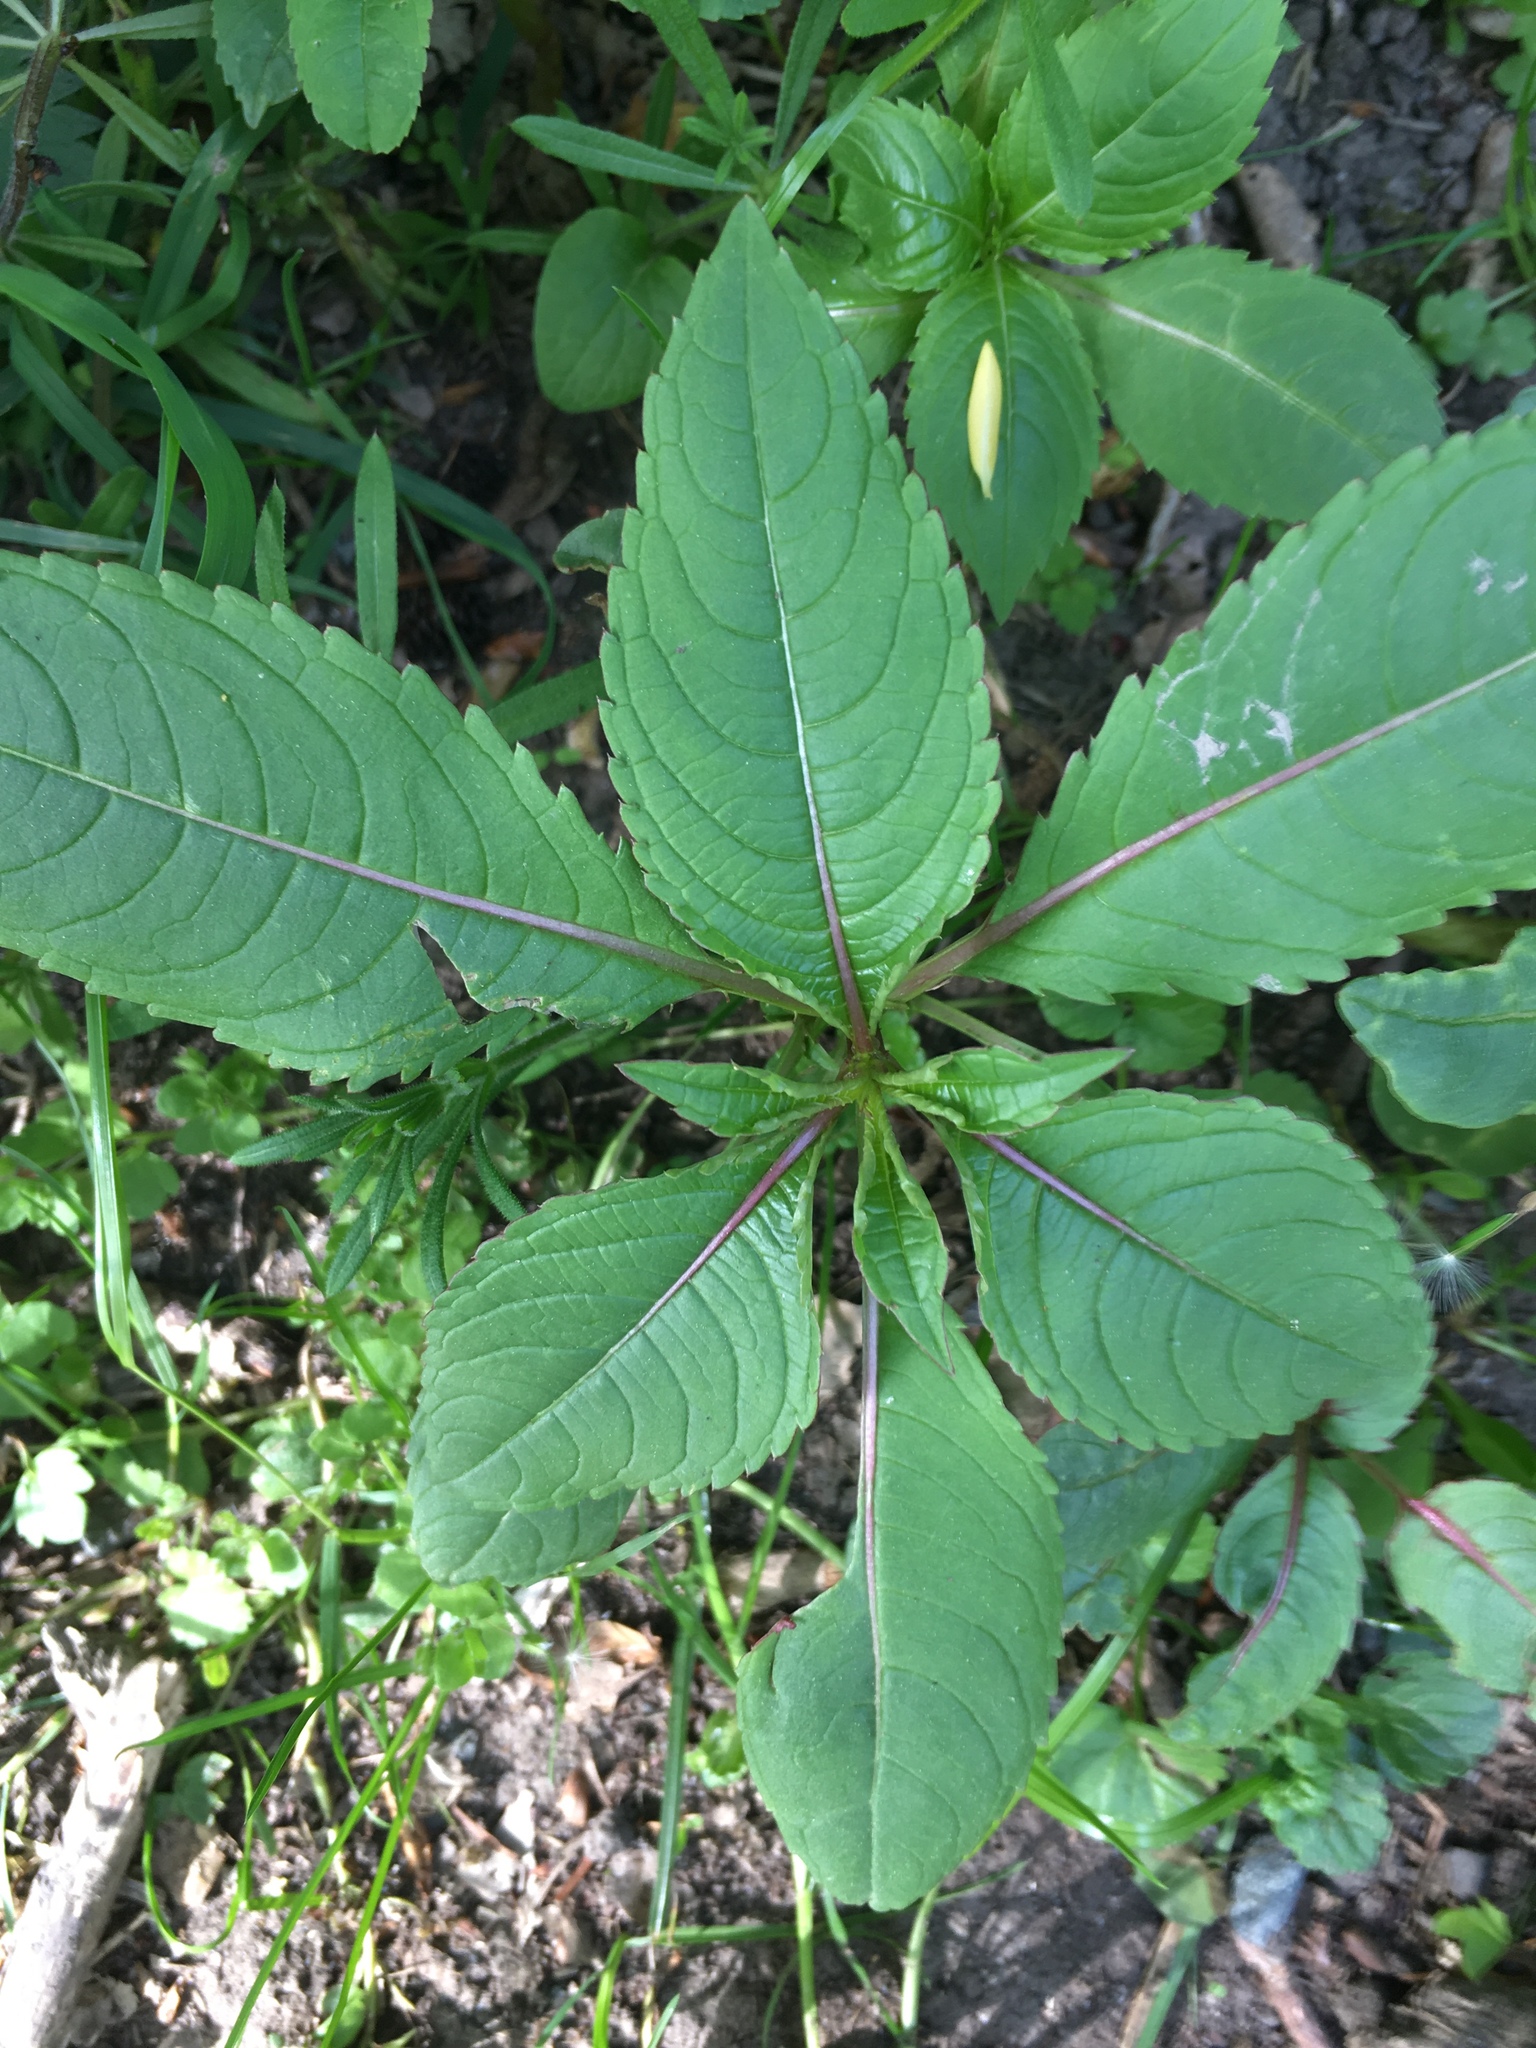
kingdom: Plantae
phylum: Tracheophyta
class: Magnoliopsida
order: Ericales
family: Balsaminaceae
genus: Impatiens
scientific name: Impatiens glandulifera
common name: Himalayan balsam
